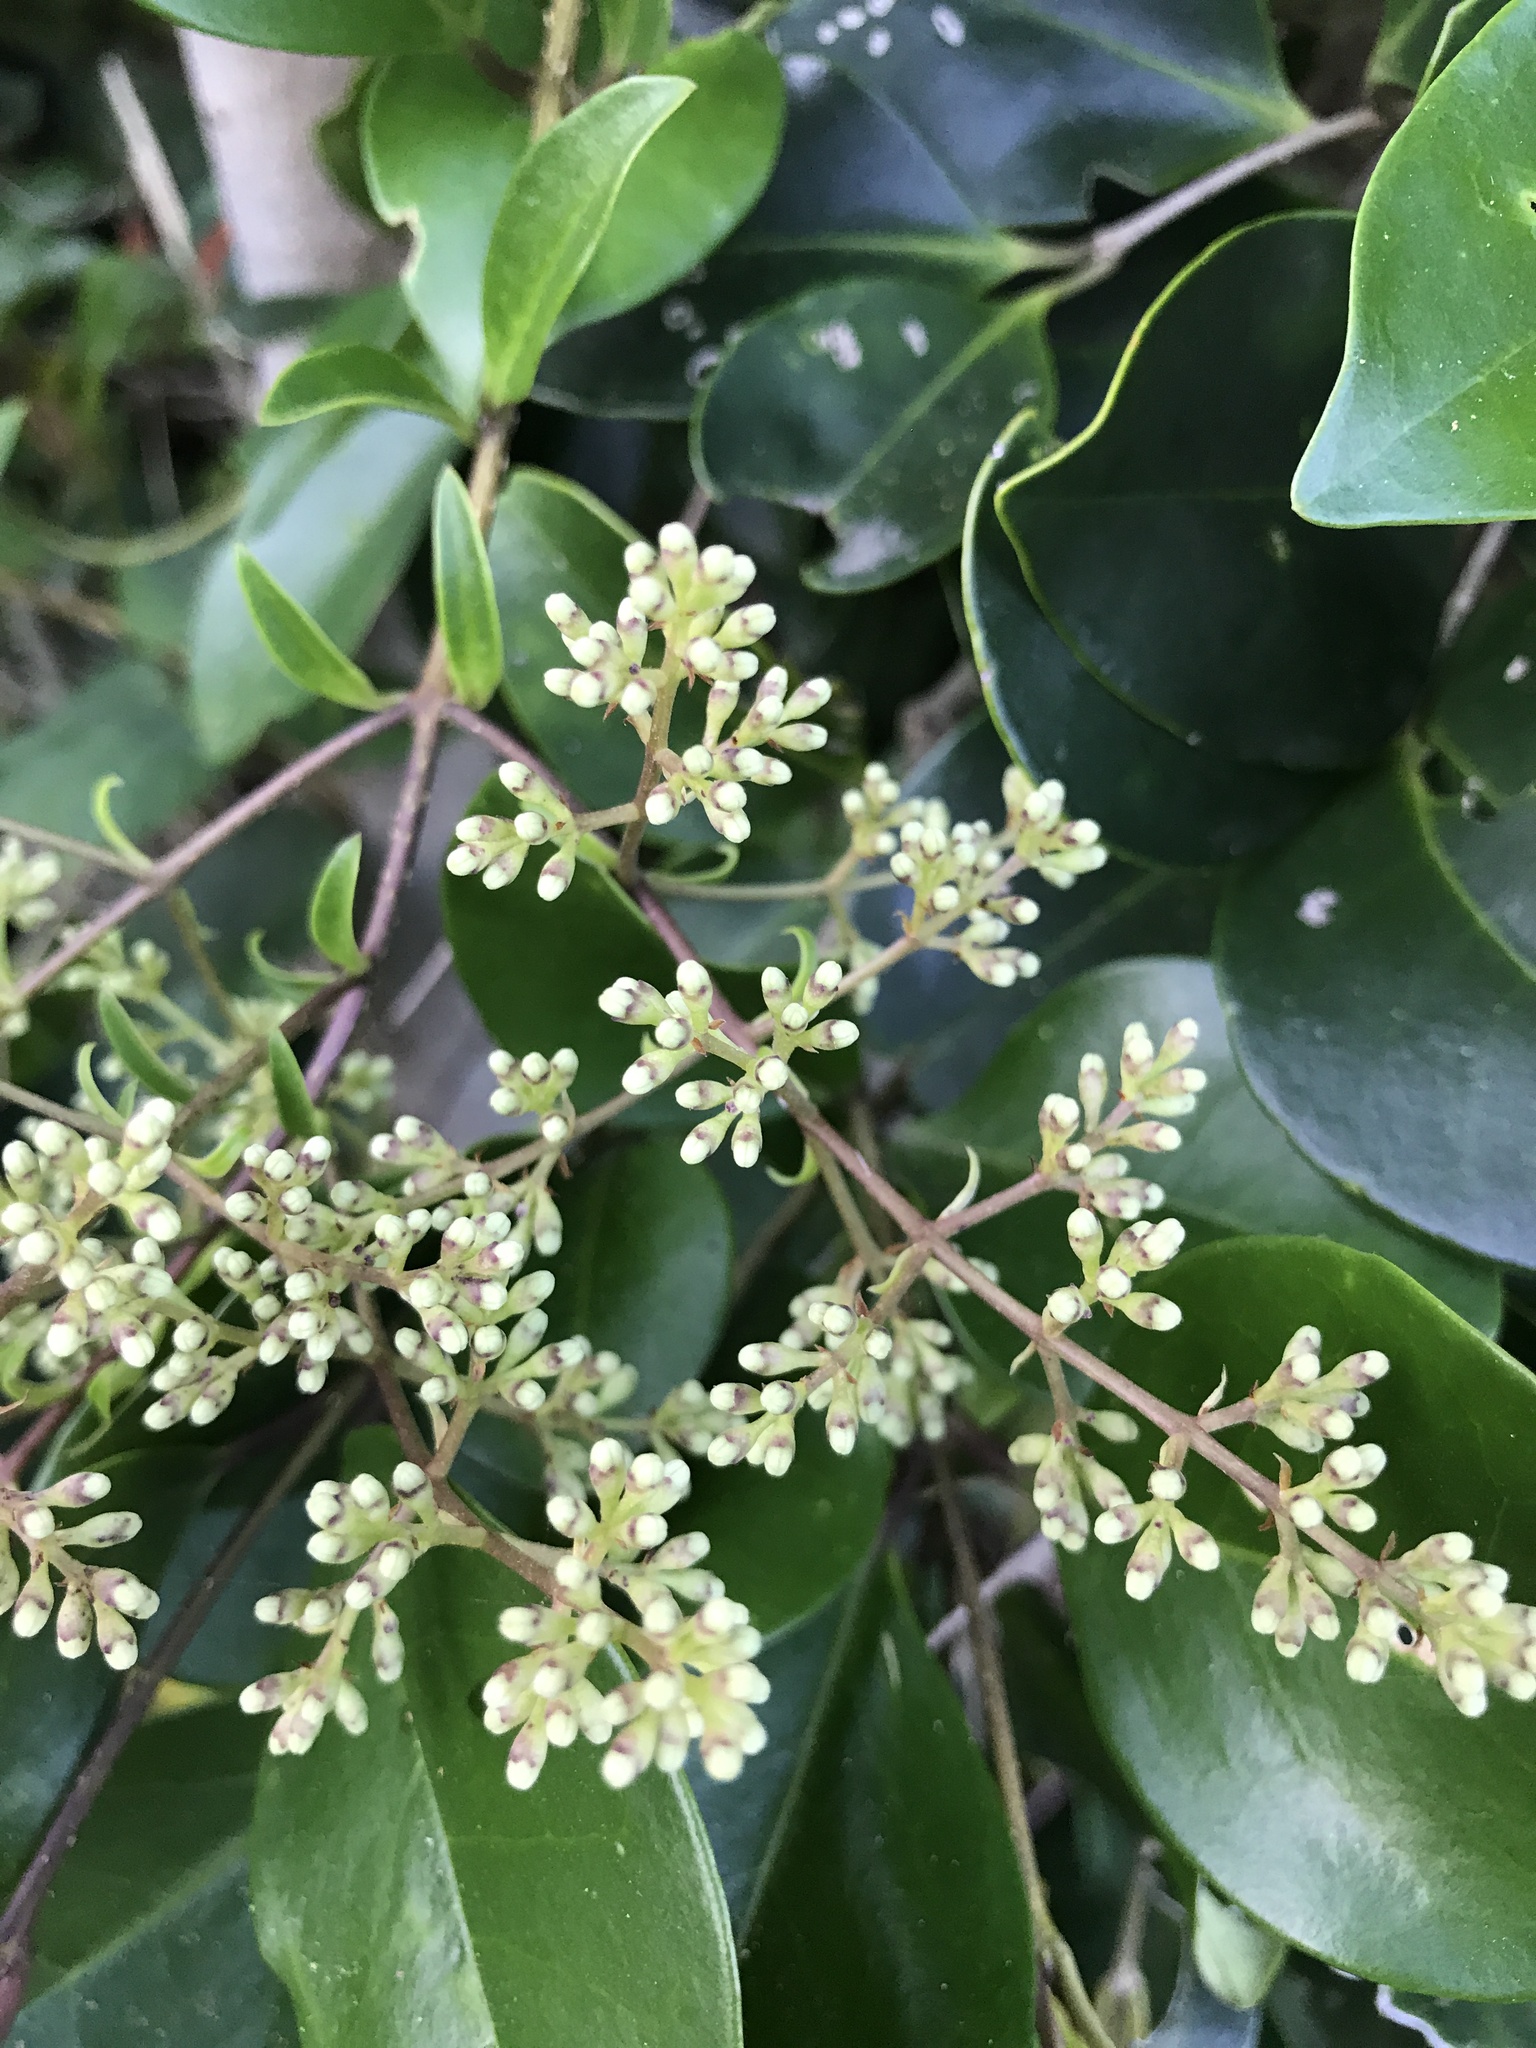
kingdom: Plantae
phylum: Tracheophyta
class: Magnoliopsida
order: Lamiales
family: Oleaceae
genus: Ligustrum
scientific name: Ligustrum japonicum
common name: Japanese privet
